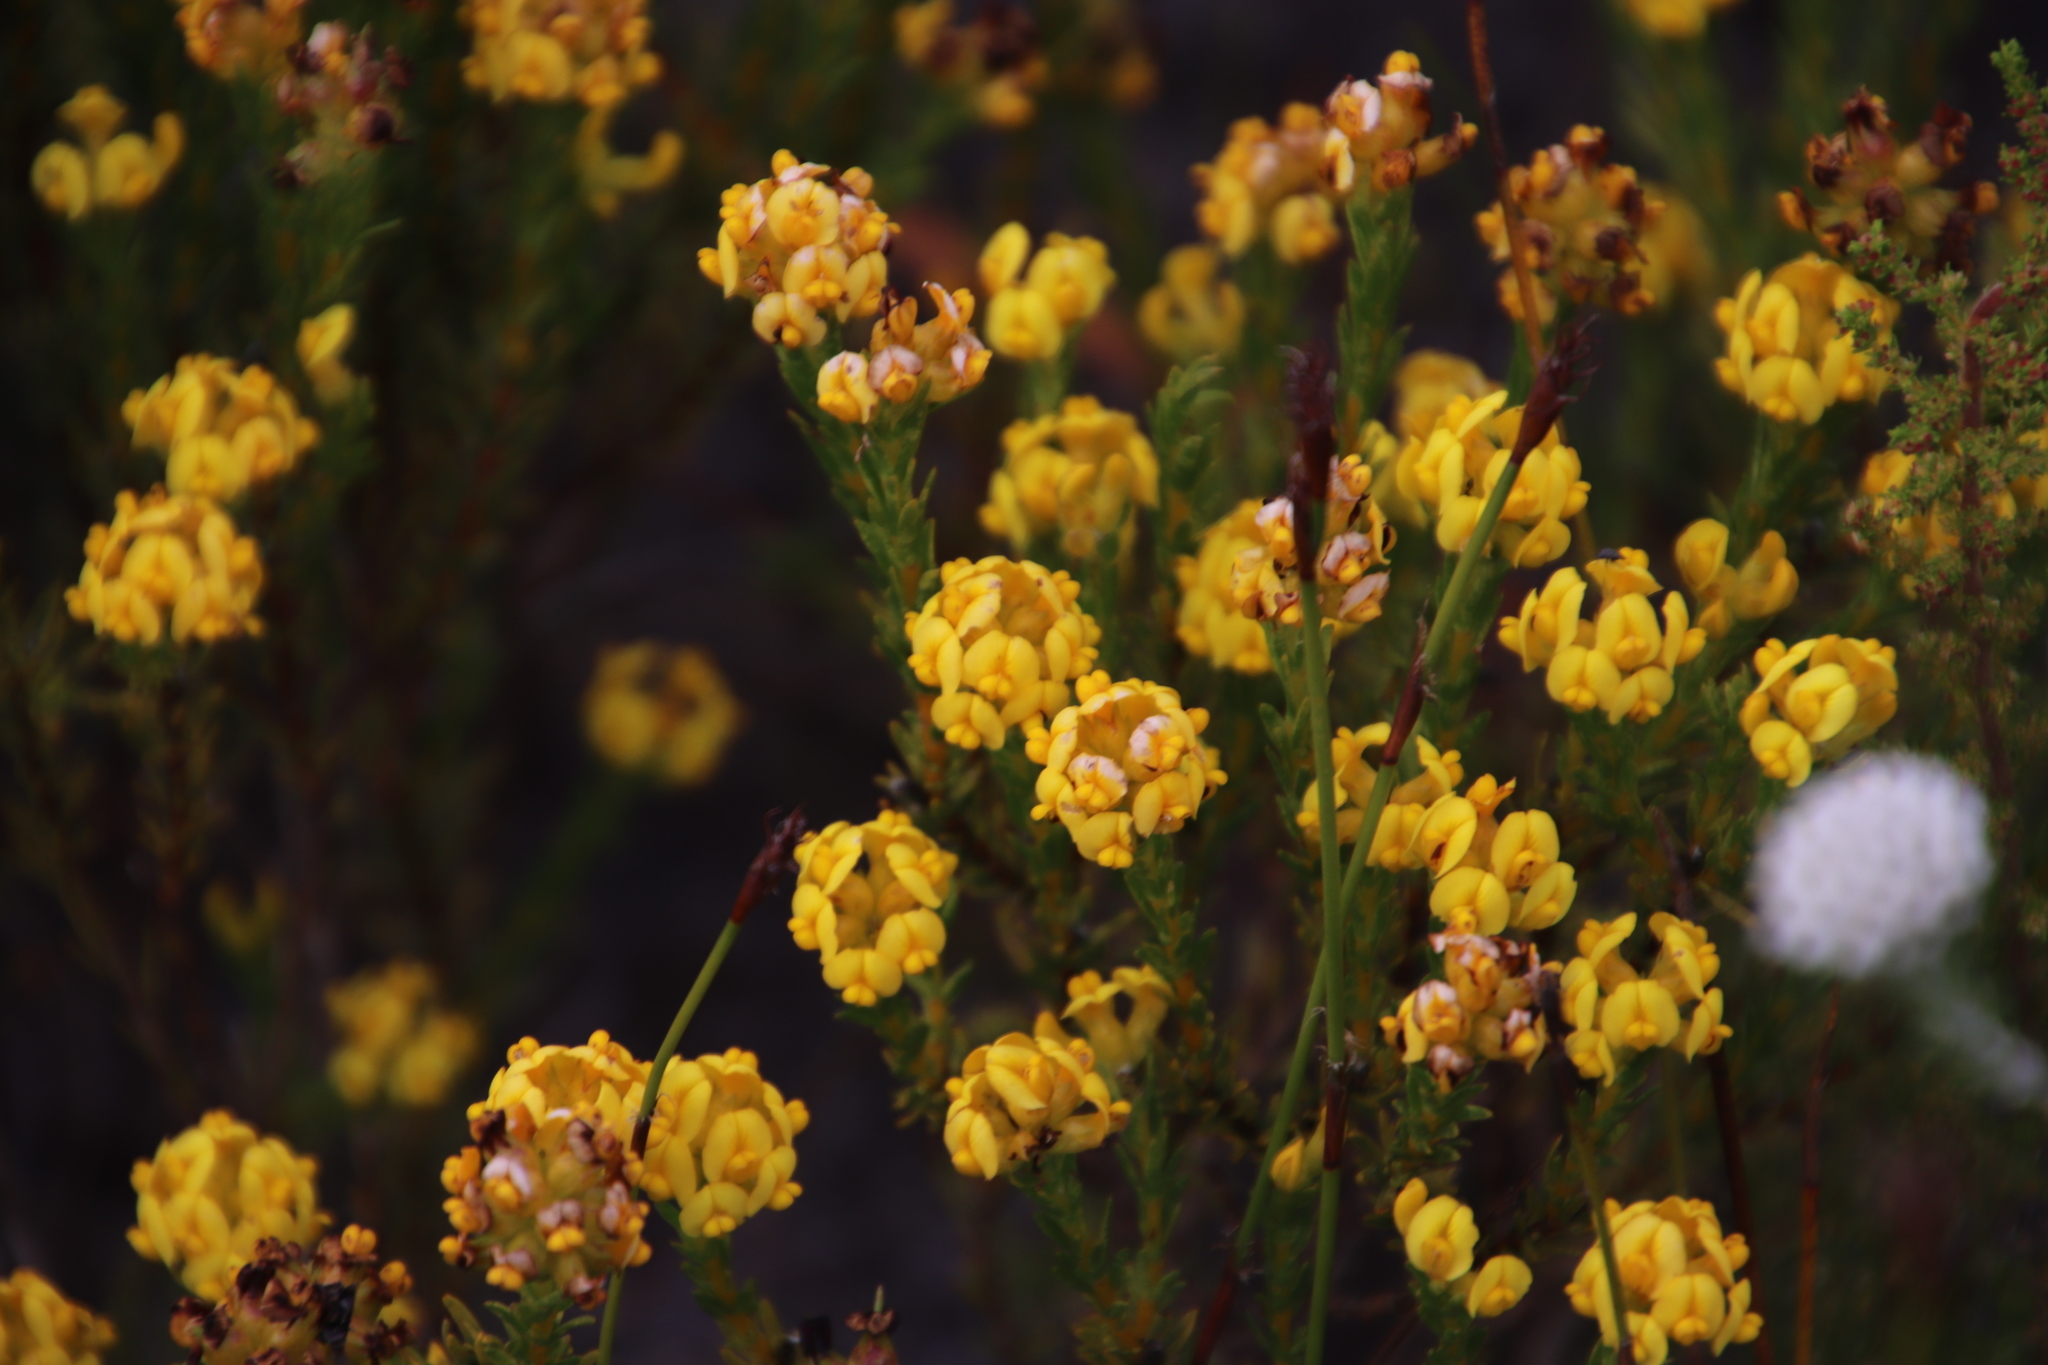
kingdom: Plantae
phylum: Tracheophyta
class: Magnoliopsida
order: Fabales
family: Fabaceae
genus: Aspalathus
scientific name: Aspalathus callosa
